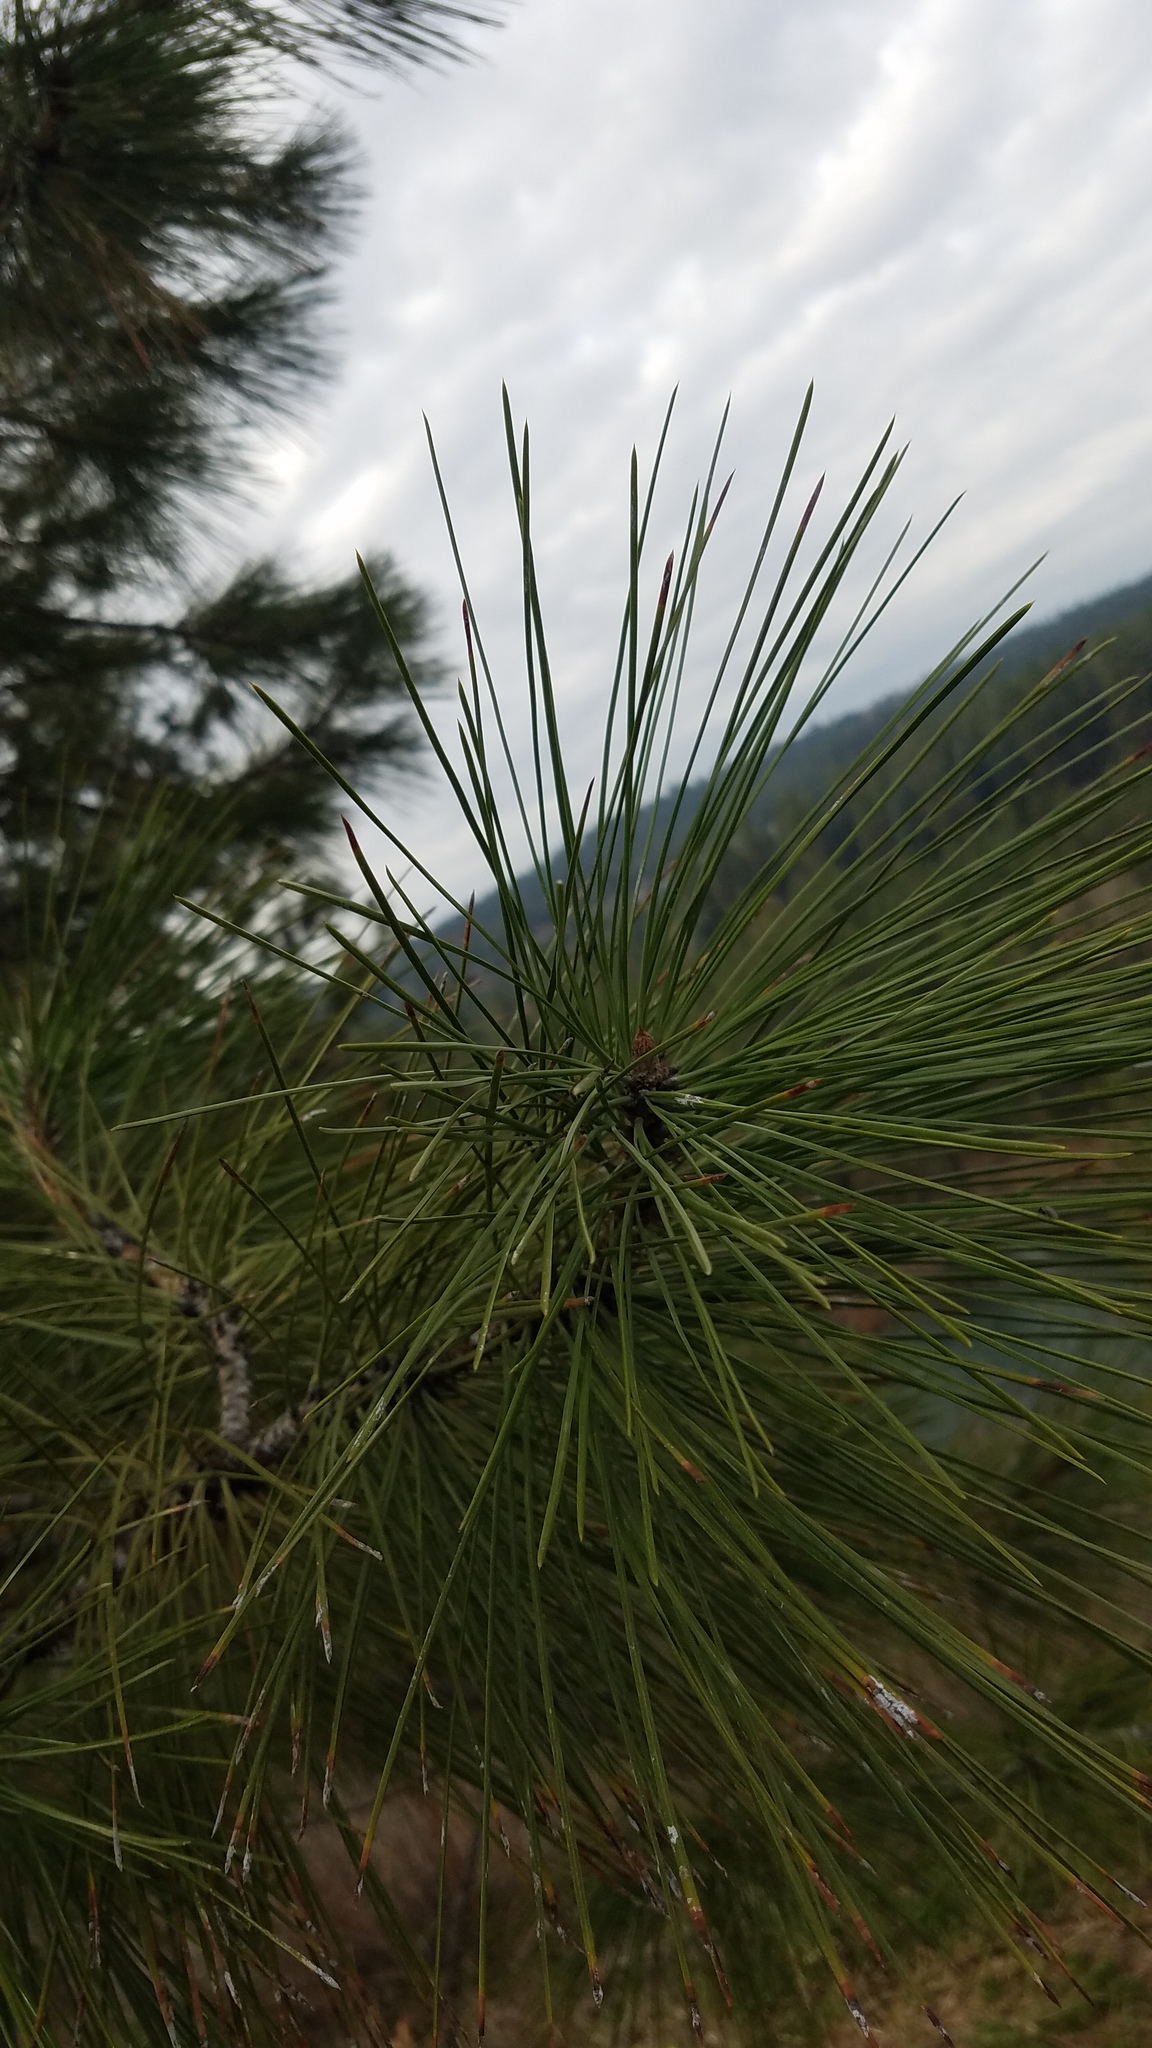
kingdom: Plantae
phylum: Tracheophyta
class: Pinopsida
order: Pinales
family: Pinaceae
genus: Pinus
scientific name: Pinus ponderosa
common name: Western yellow-pine
